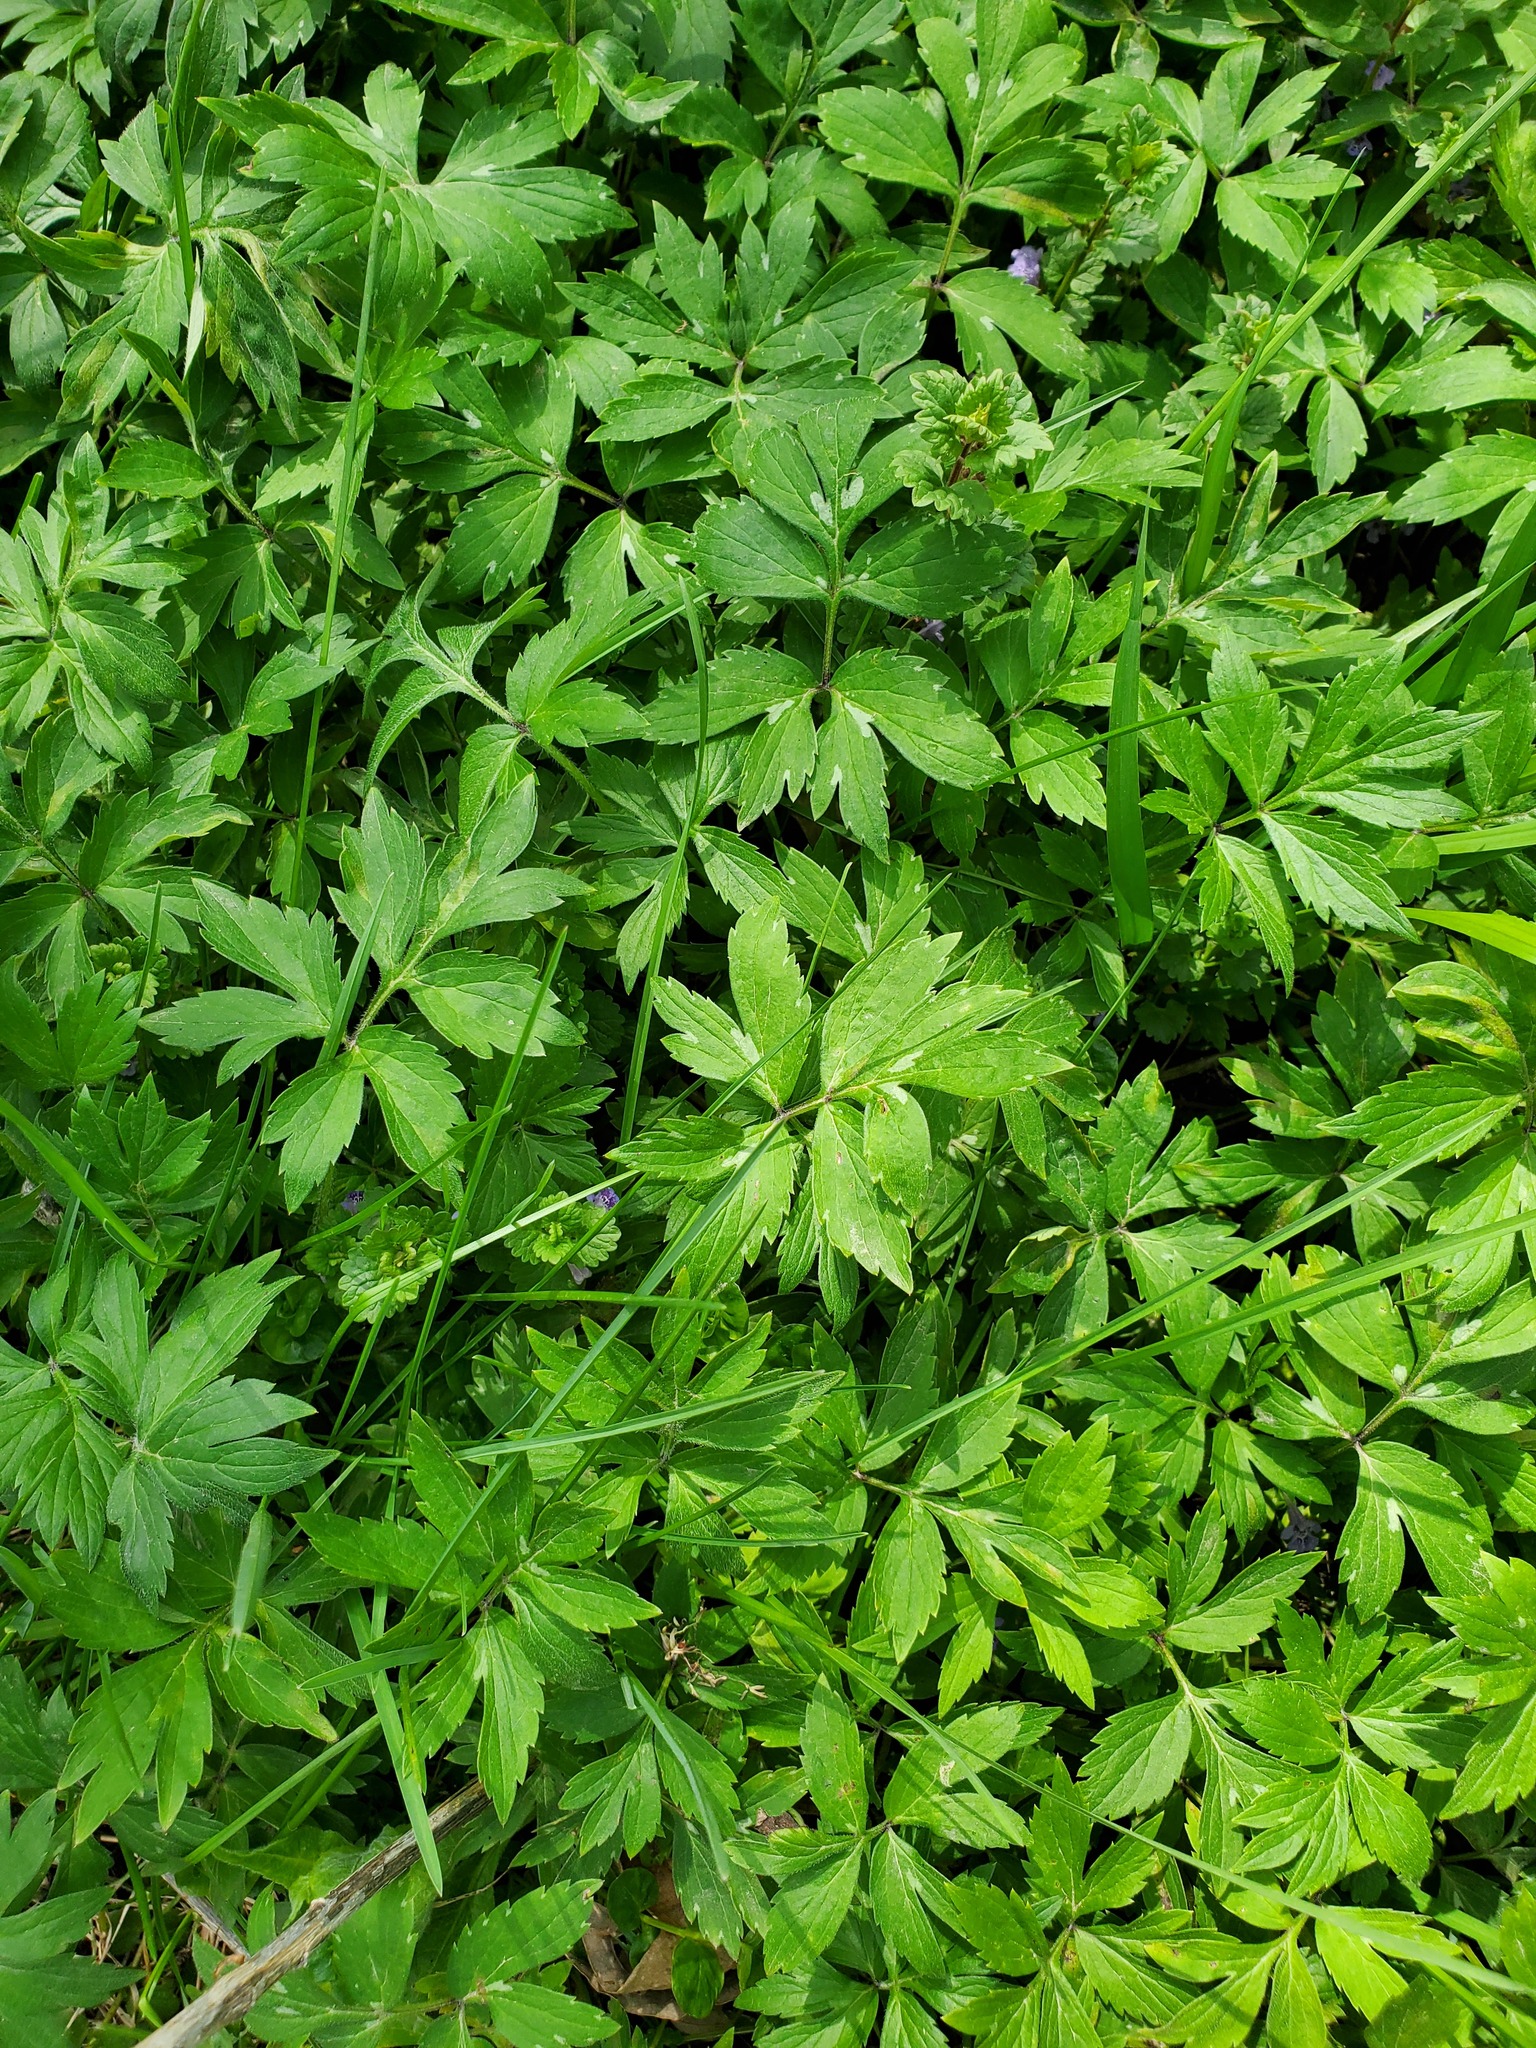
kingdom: Plantae
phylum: Tracheophyta
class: Magnoliopsida
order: Boraginales
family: Hydrophyllaceae
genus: Hydrophyllum
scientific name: Hydrophyllum virginianum
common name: Virginia waterleaf
